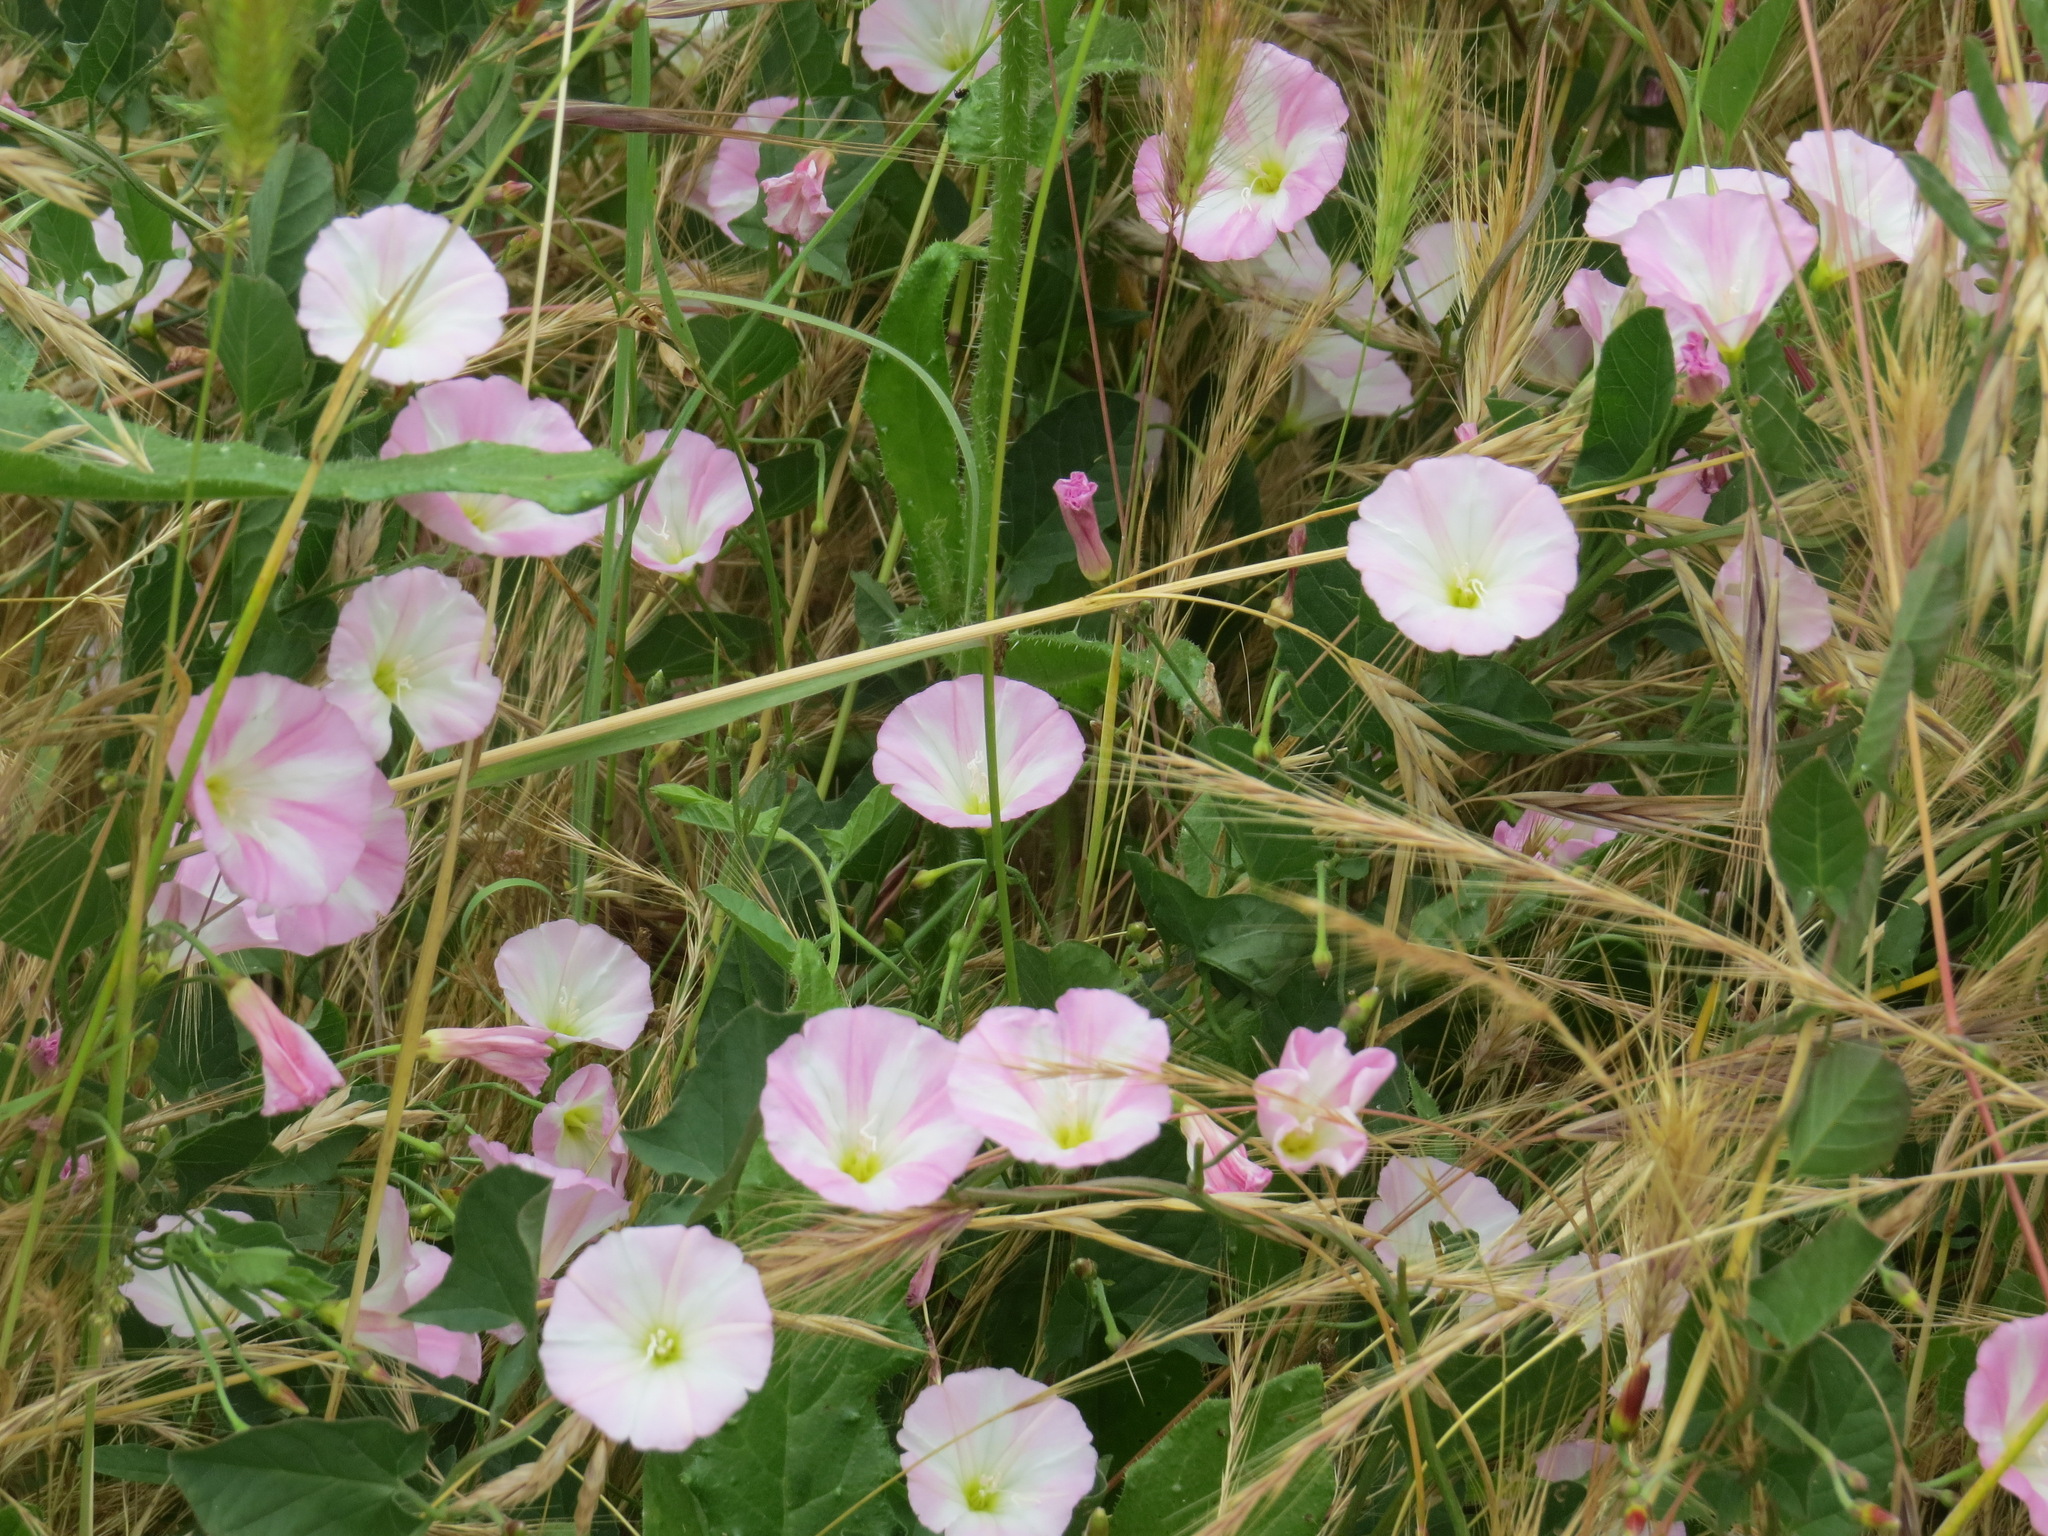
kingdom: Plantae
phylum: Tracheophyta
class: Magnoliopsida
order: Solanales
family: Convolvulaceae
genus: Convolvulus
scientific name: Convolvulus arvensis
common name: Field bindweed
